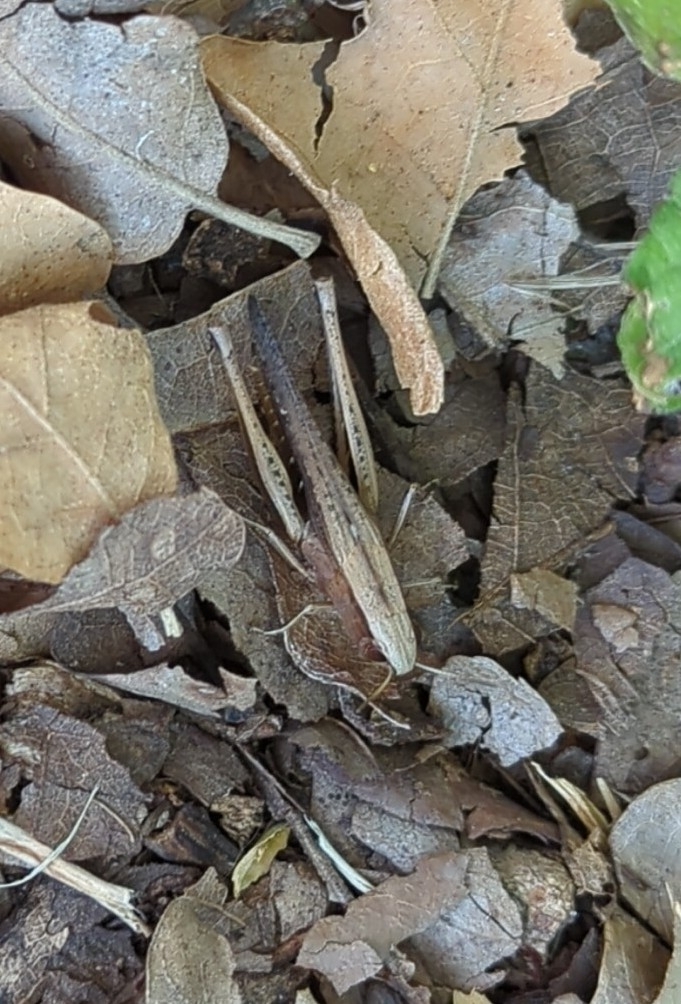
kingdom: Animalia
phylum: Arthropoda
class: Insecta
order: Orthoptera
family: Acrididae
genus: Amblytropidia
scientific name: Amblytropidia mysteca
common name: Brown winter grasshopper
